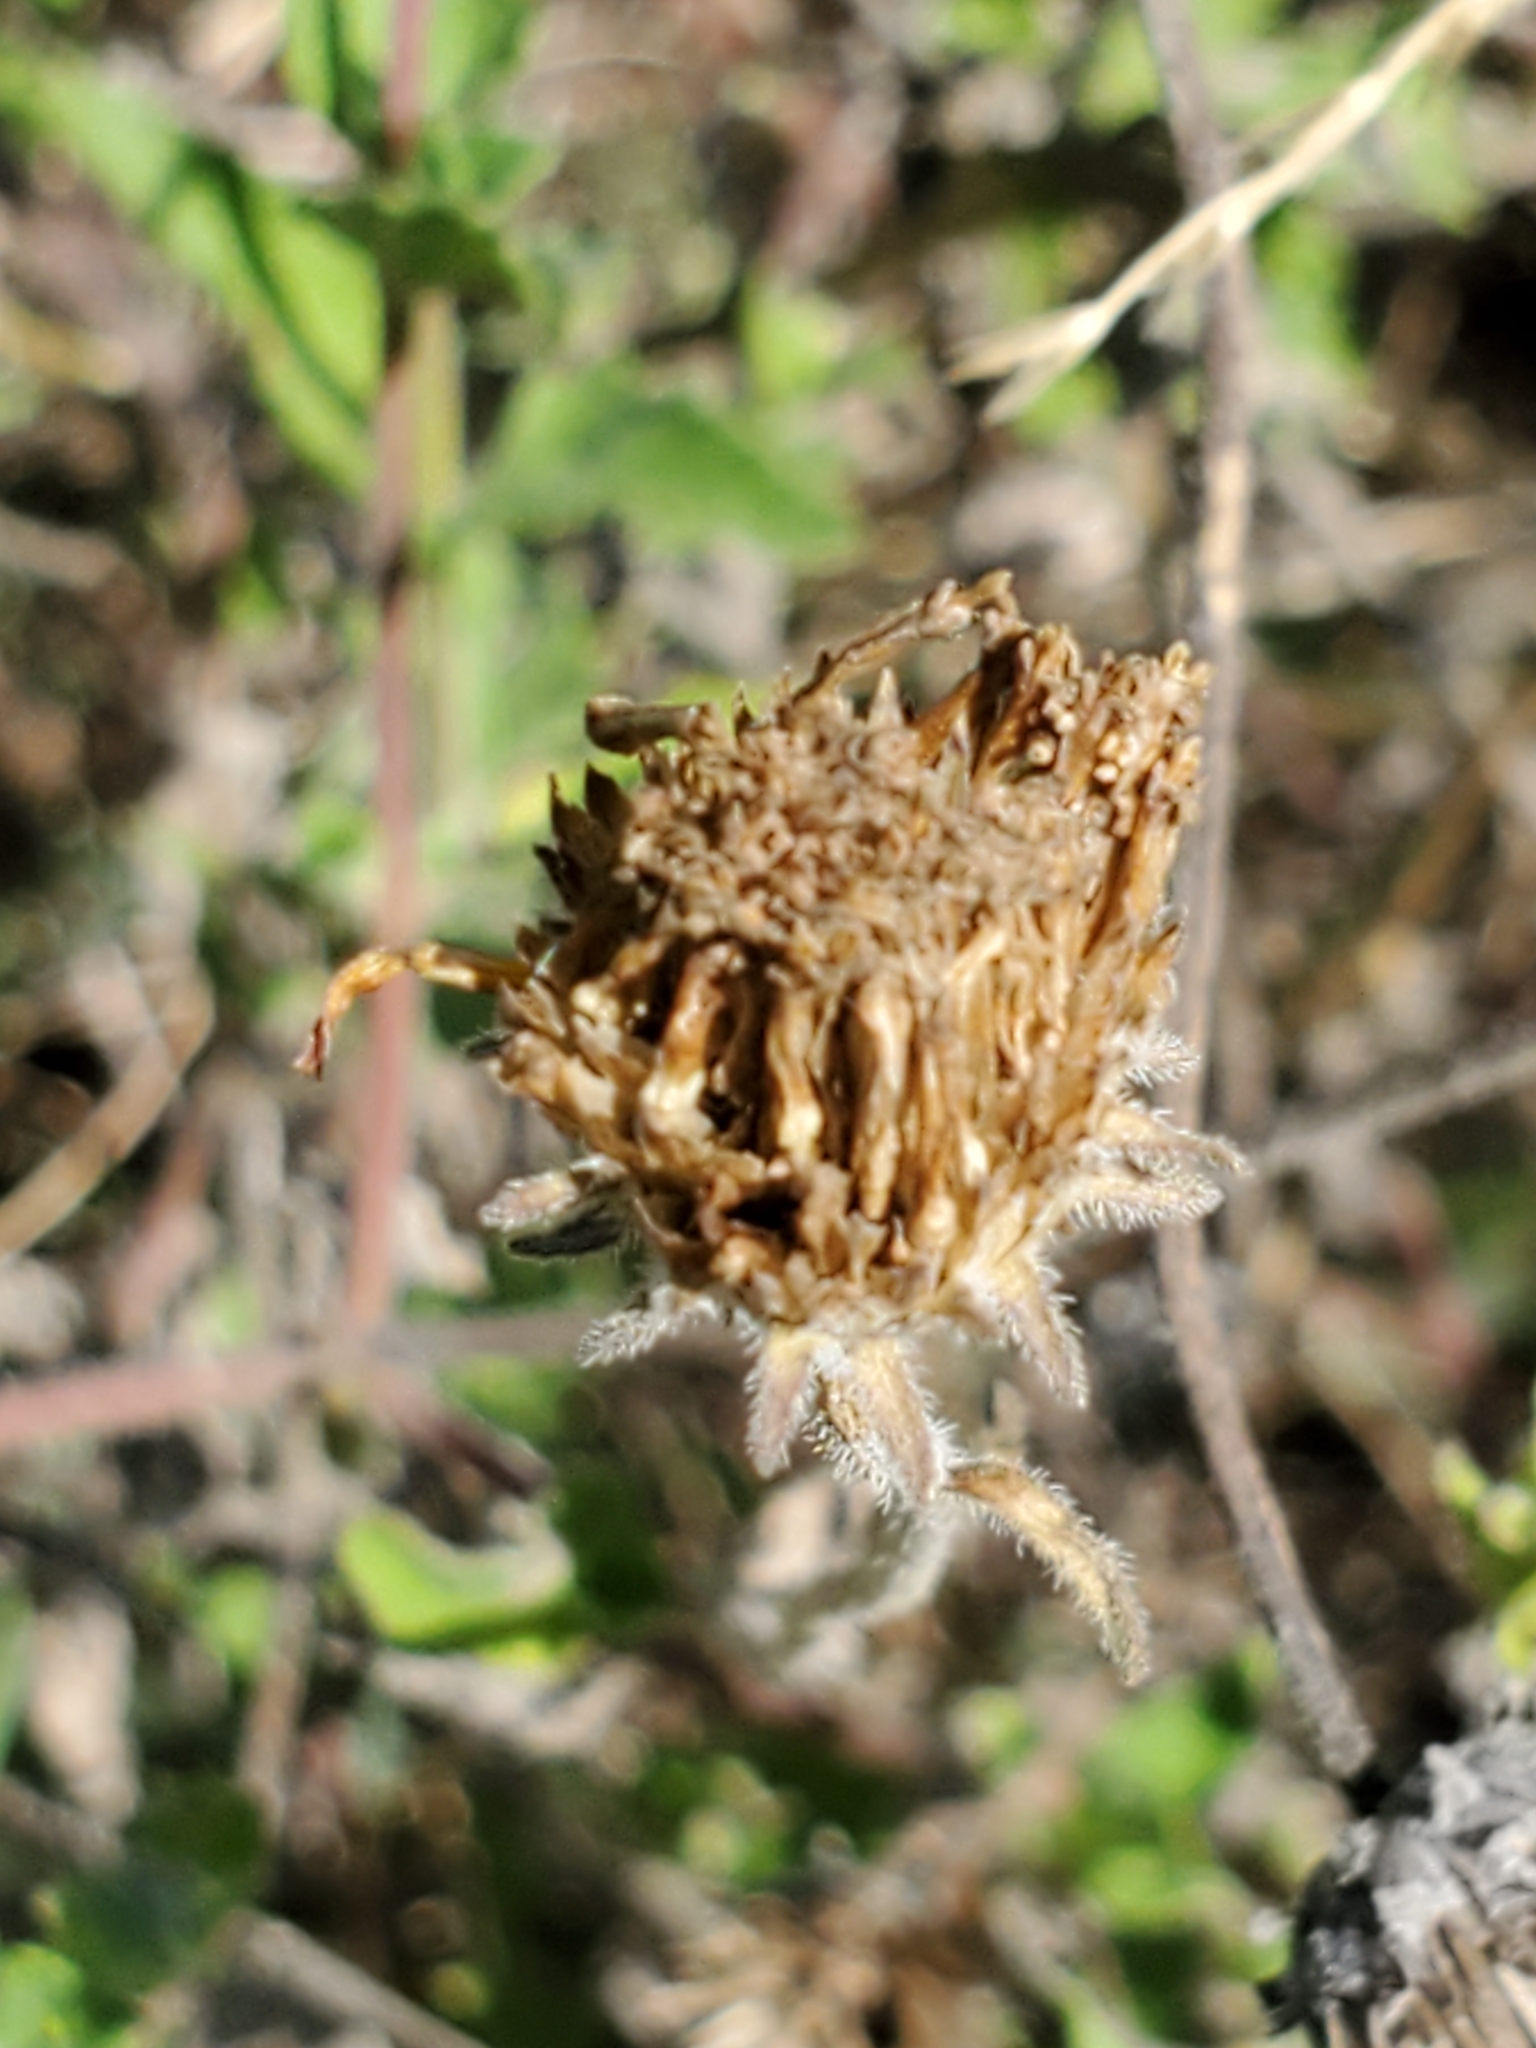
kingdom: Plantae
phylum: Tracheophyta
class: Magnoliopsida
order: Asterales
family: Asteraceae
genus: Simsia
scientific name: Simsia calva
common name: Awnless bush-sunflower
